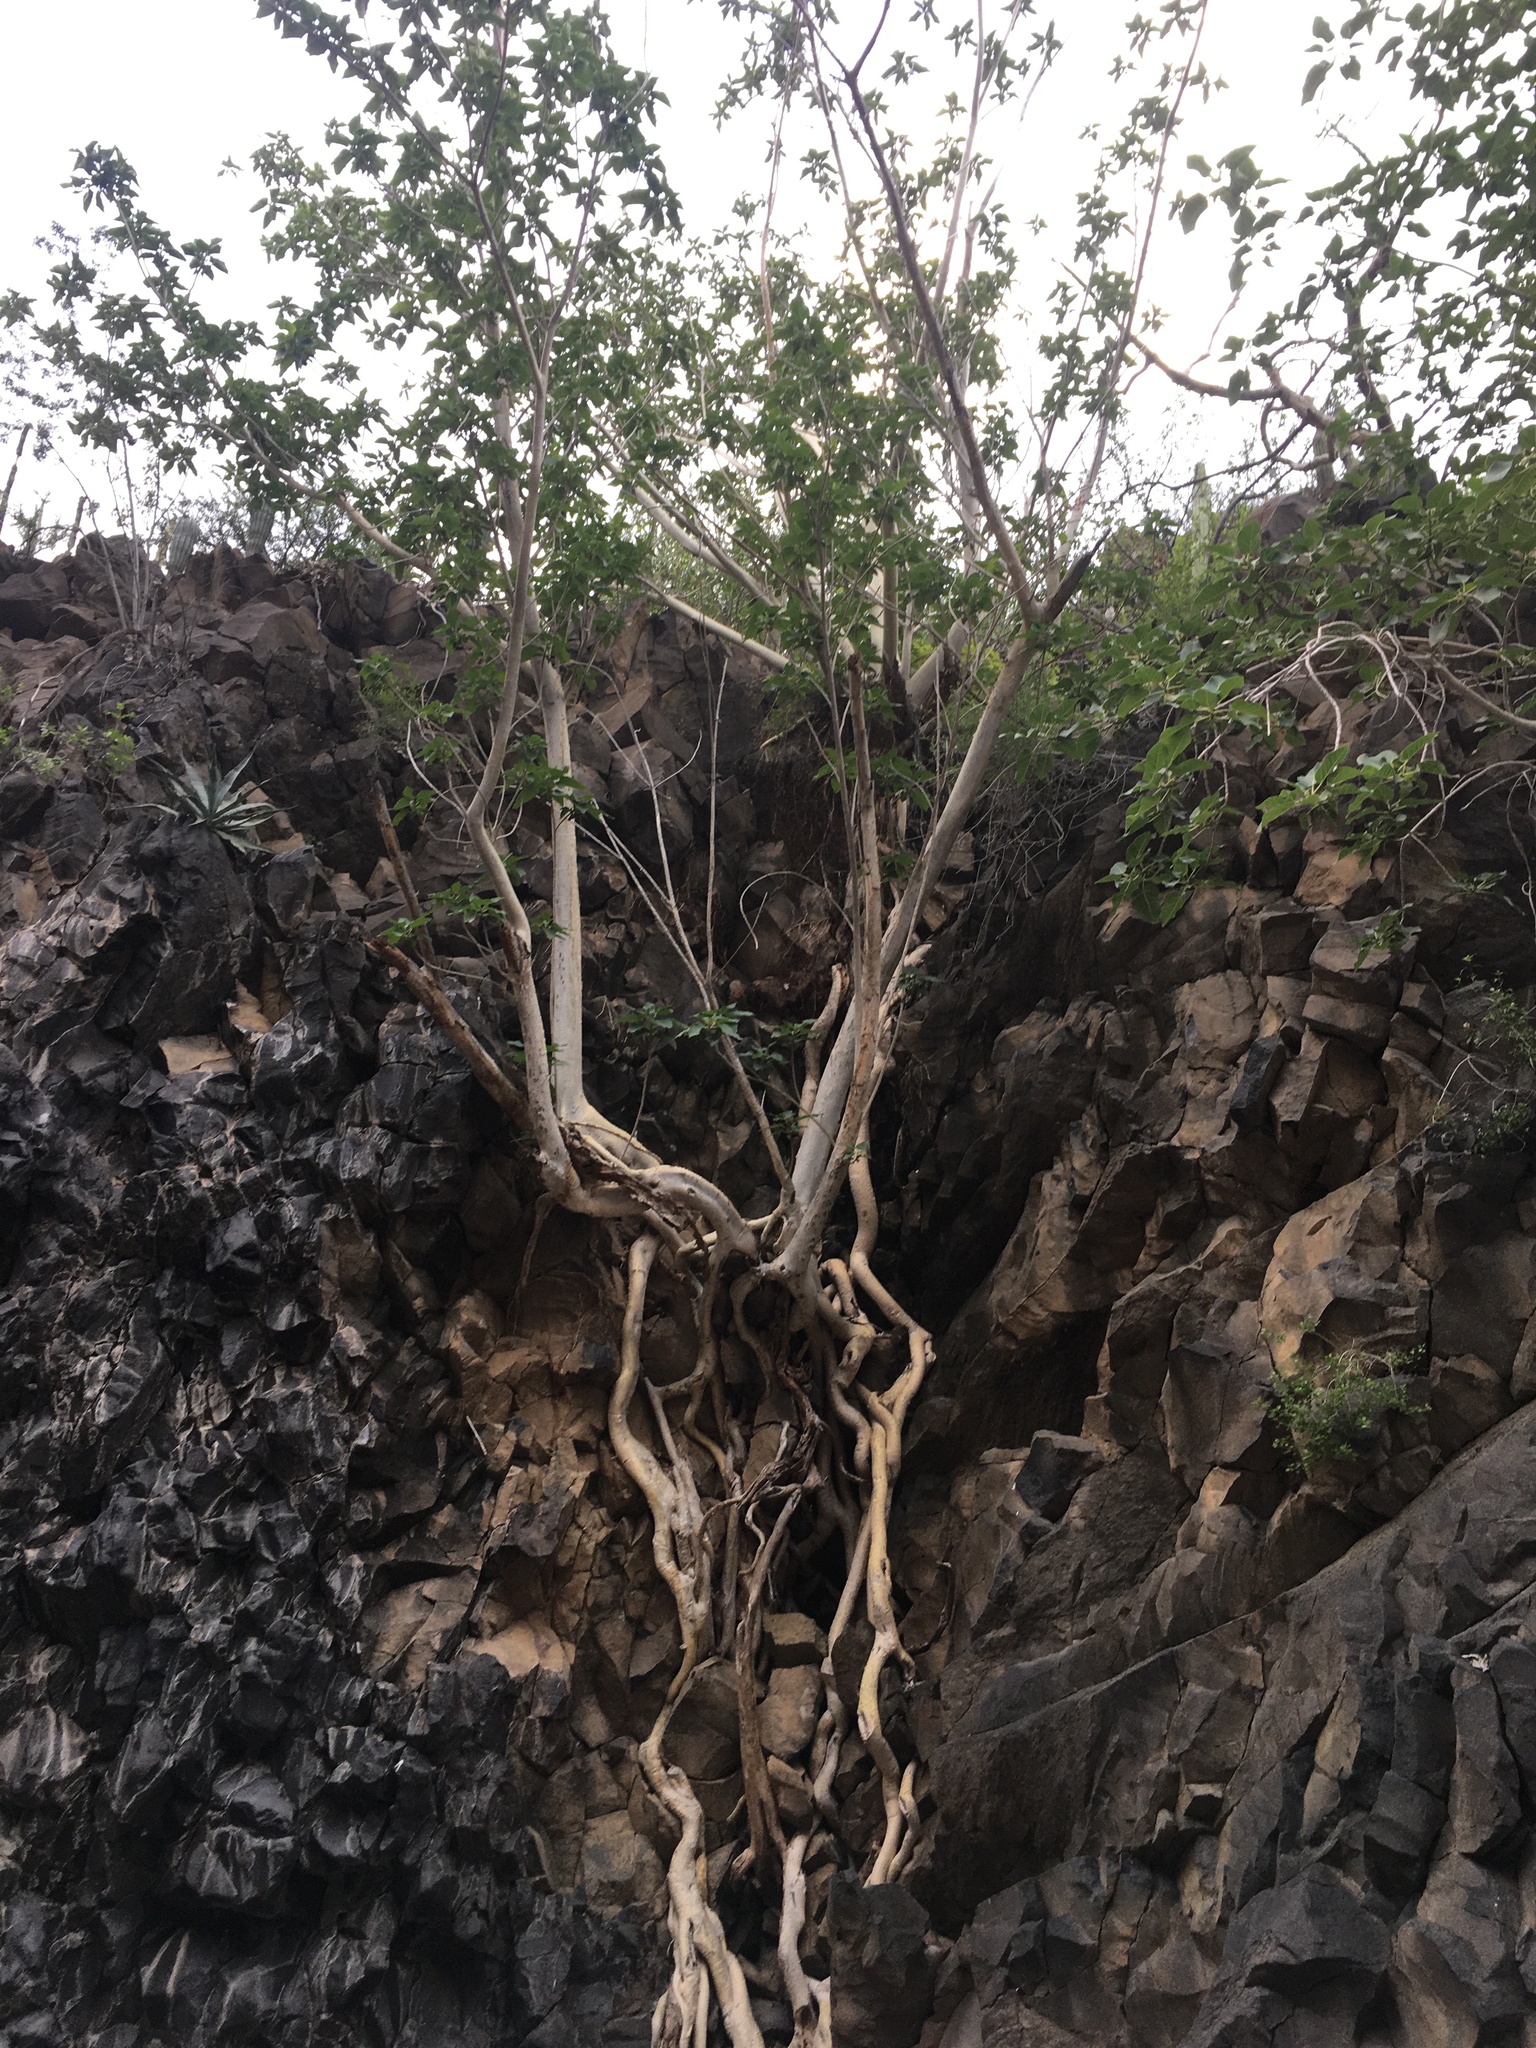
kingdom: Plantae
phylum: Tracheophyta
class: Magnoliopsida
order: Rosales
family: Moraceae
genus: Ficus
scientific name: Ficus petiolaris
